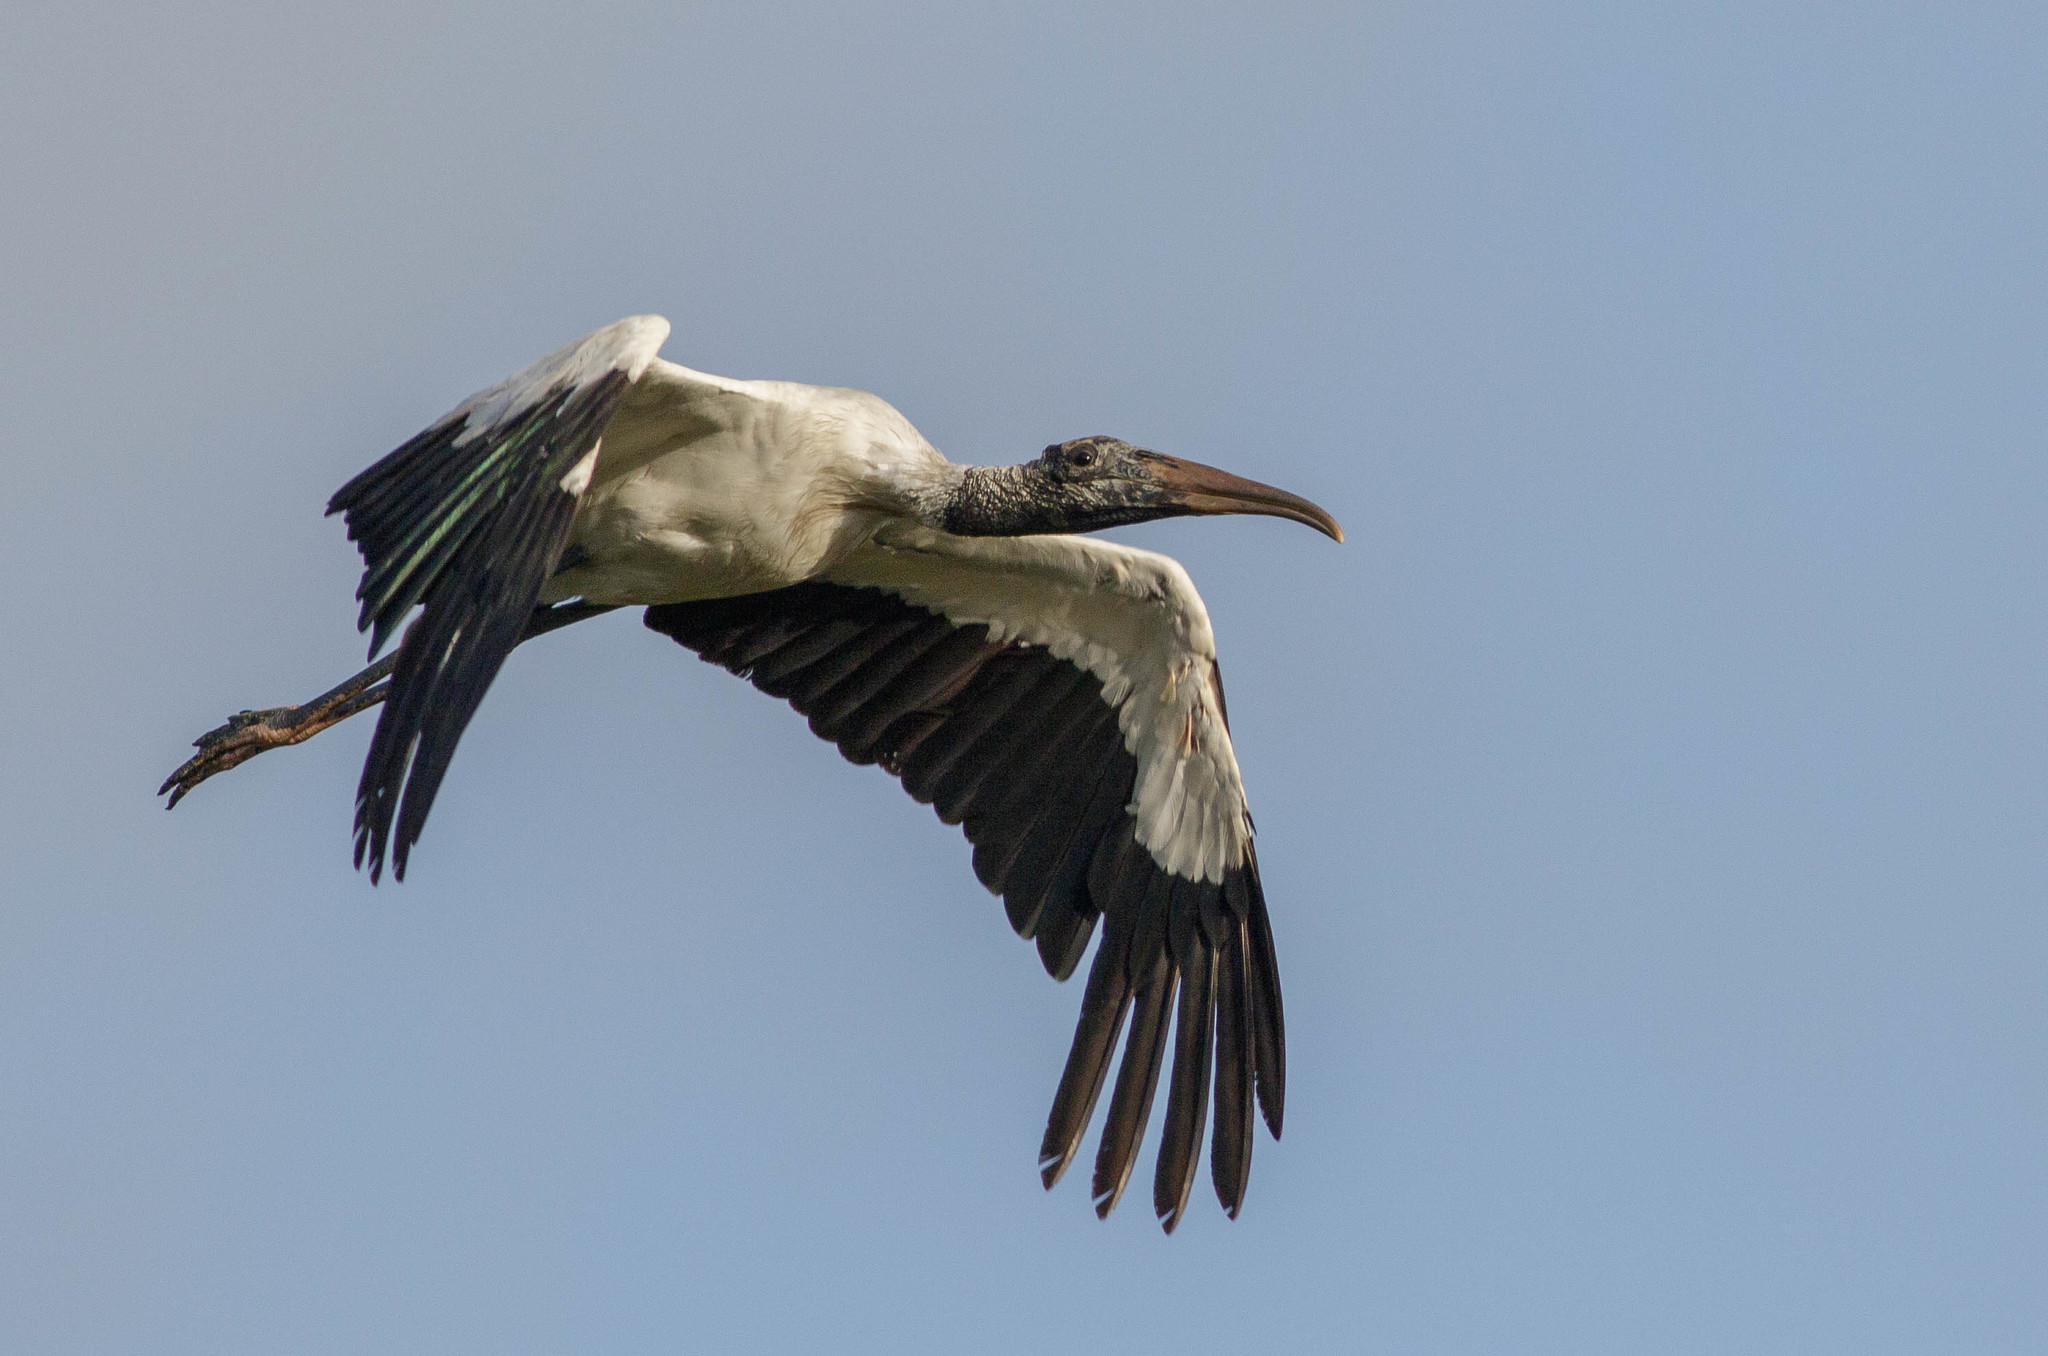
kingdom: Animalia
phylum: Chordata
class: Aves
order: Ciconiiformes
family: Ciconiidae
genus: Mycteria
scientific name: Mycteria americana
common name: Wood stork
